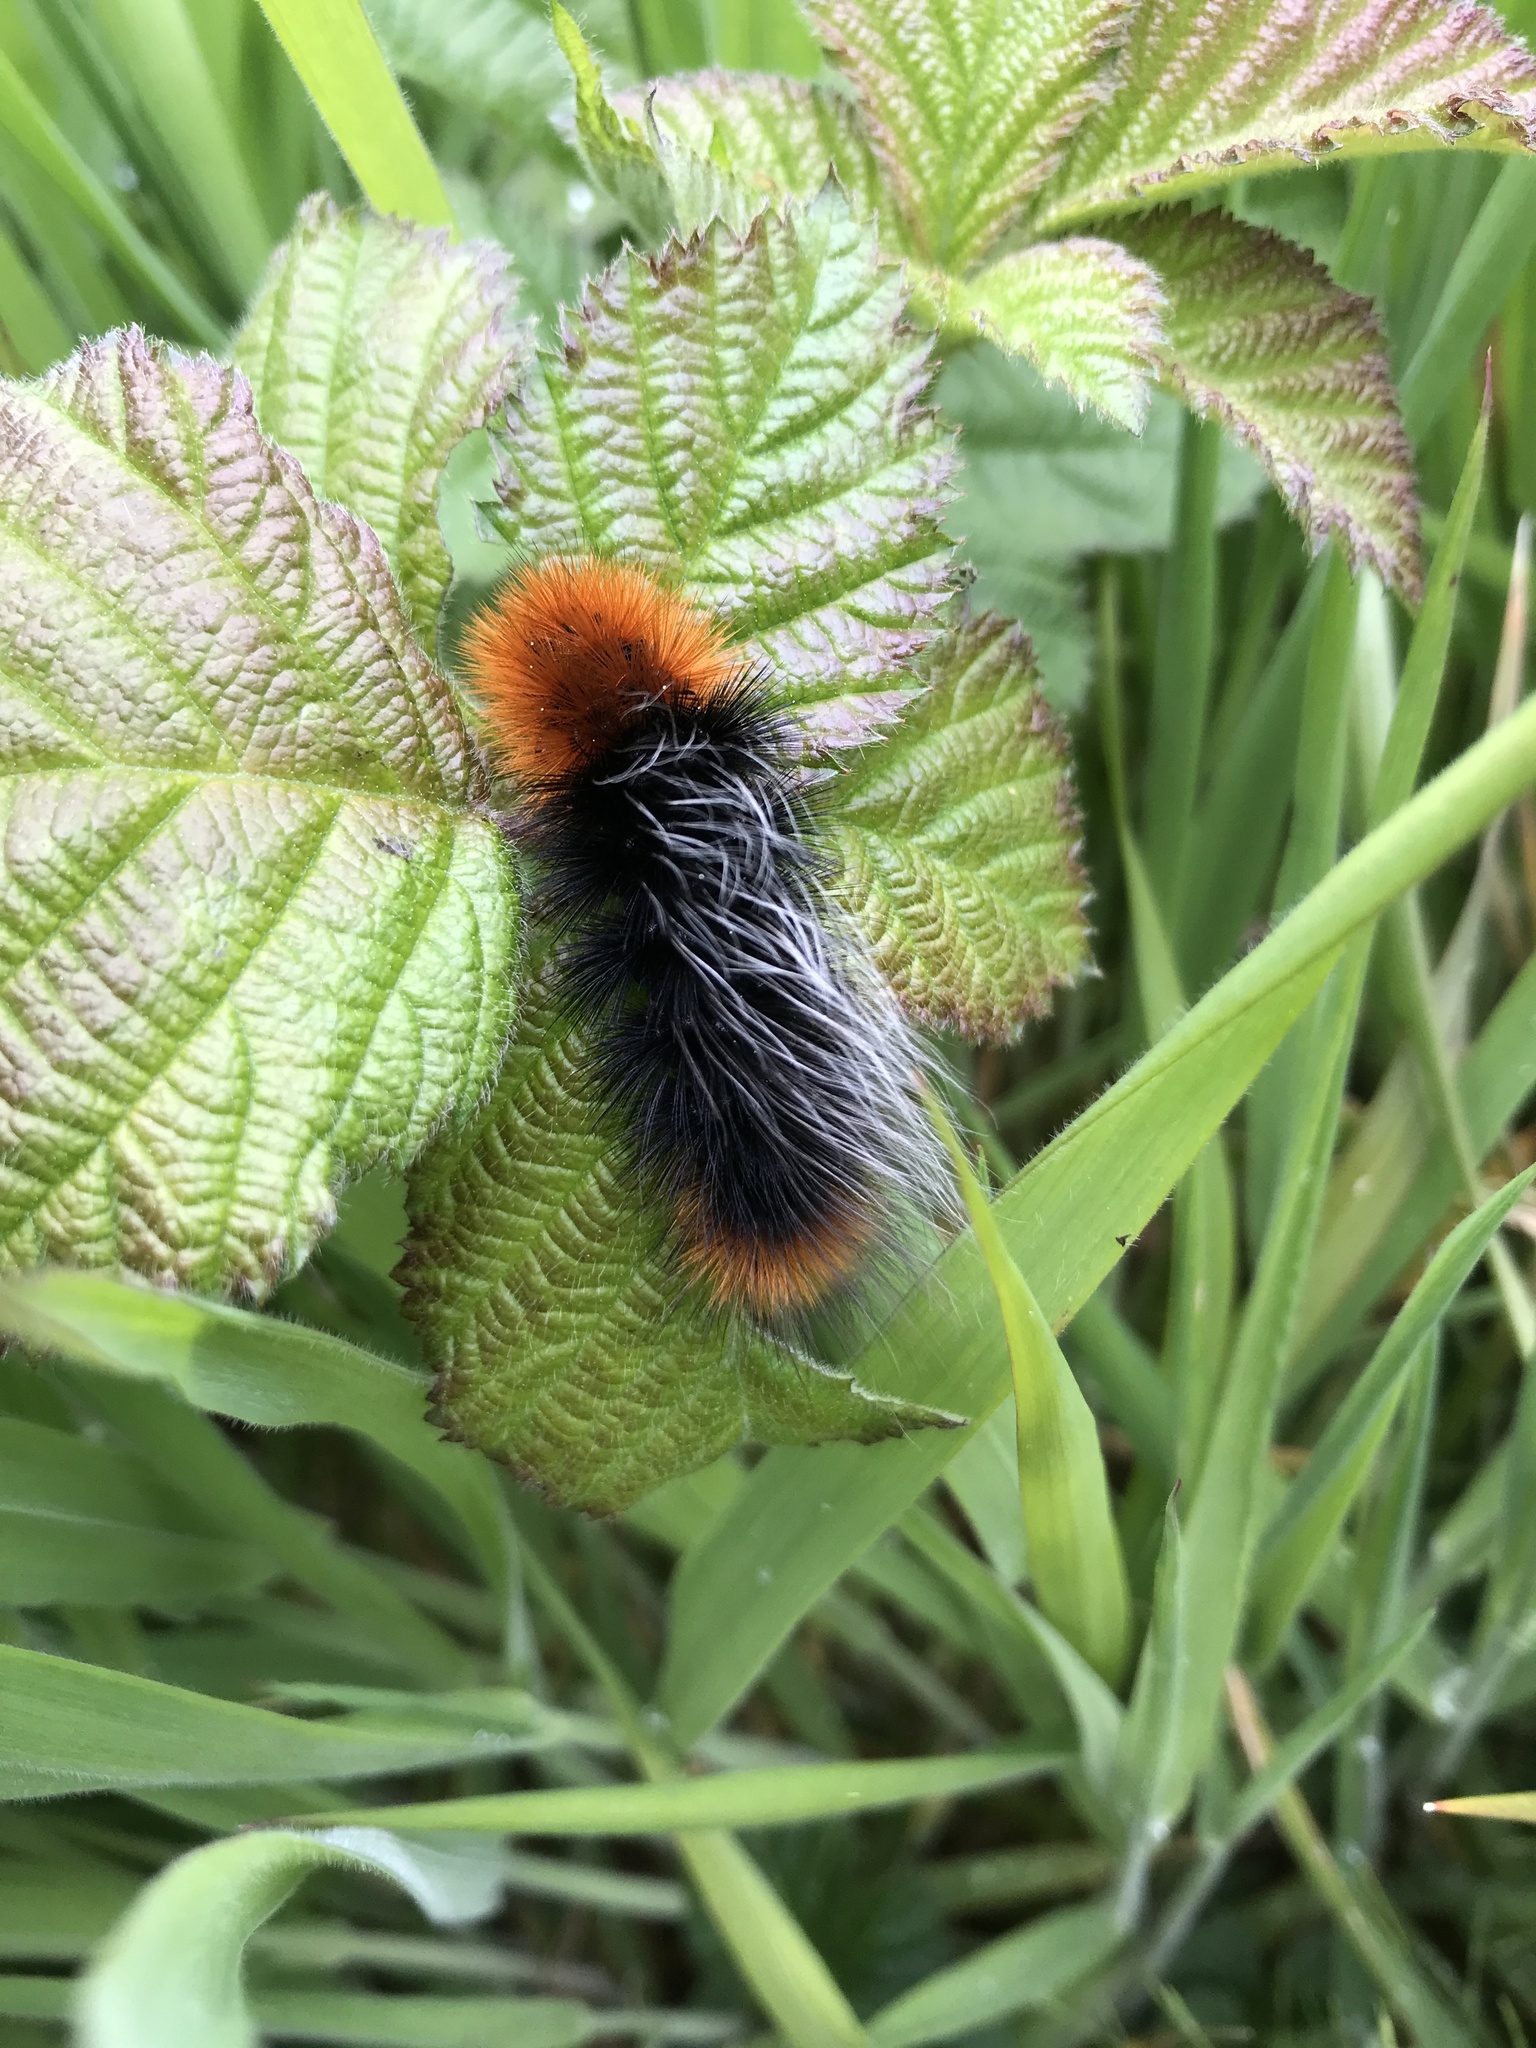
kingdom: Animalia
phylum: Arthropoda
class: Insecta
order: Lepidoptera
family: Erebidae
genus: Arctia
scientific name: Arctia tigrina
